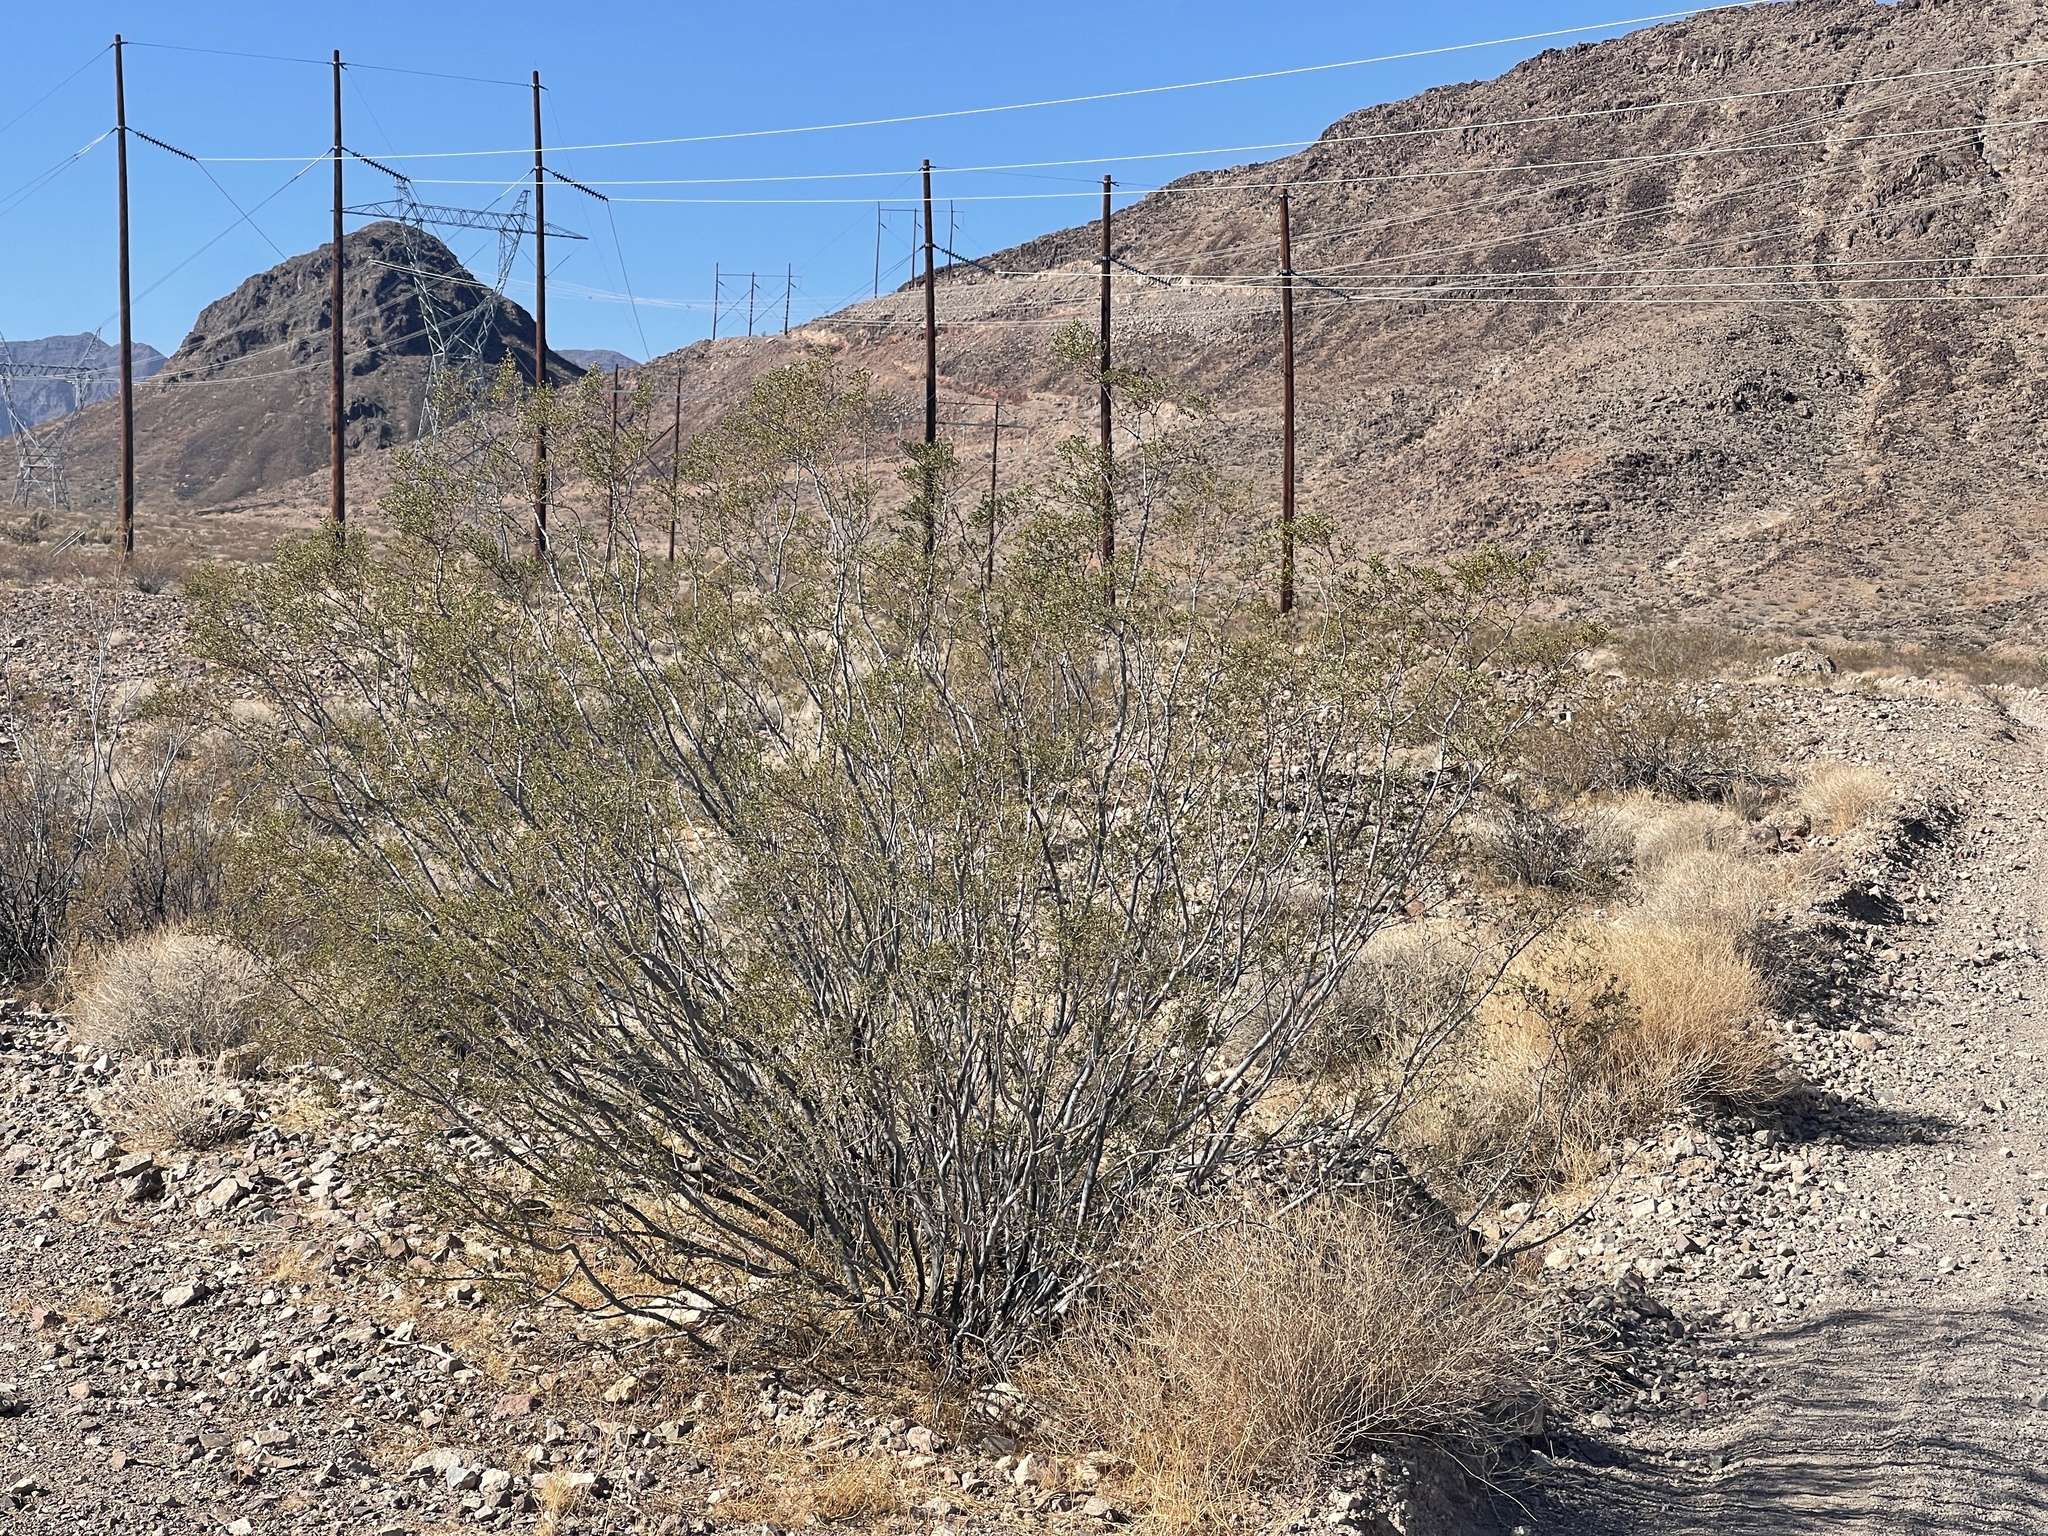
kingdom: Plantae
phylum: Tracheophyta
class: Magnoliopsida
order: Zygophyllales
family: Zygophyllaceae
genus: Larrea
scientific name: Larrea tridentata
